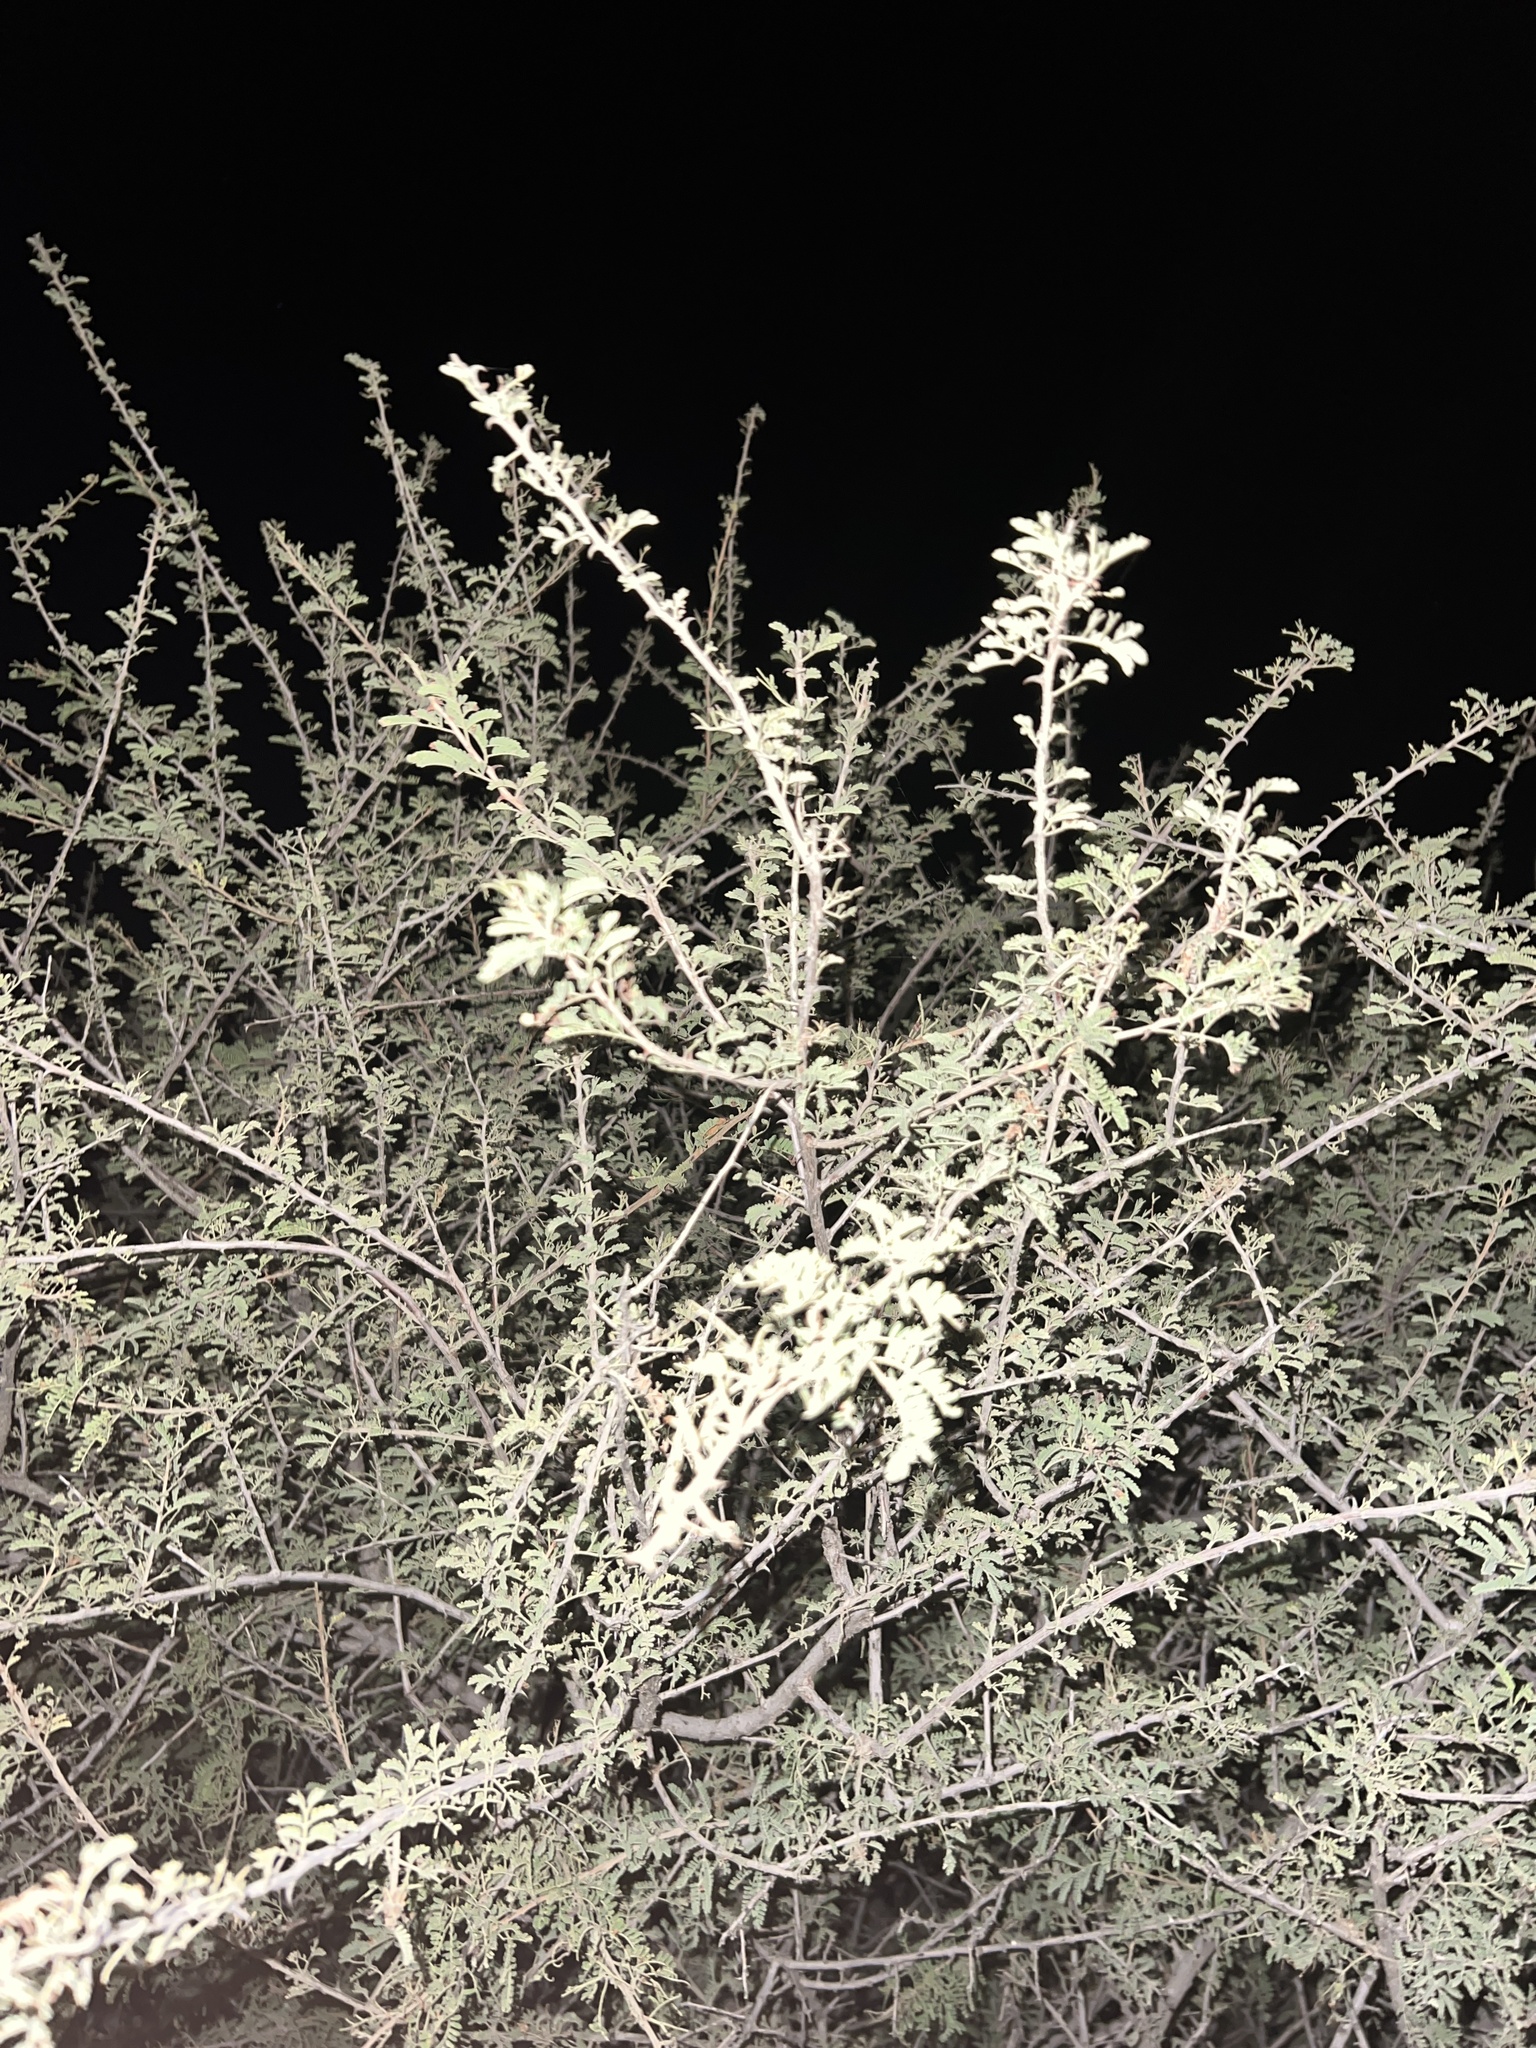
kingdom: Plantae
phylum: Tracheophyta
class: Magnoliopsida
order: Fabales
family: Fabaceae
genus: Senegalia
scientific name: Senegalia greggii
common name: Texas-mimosa
